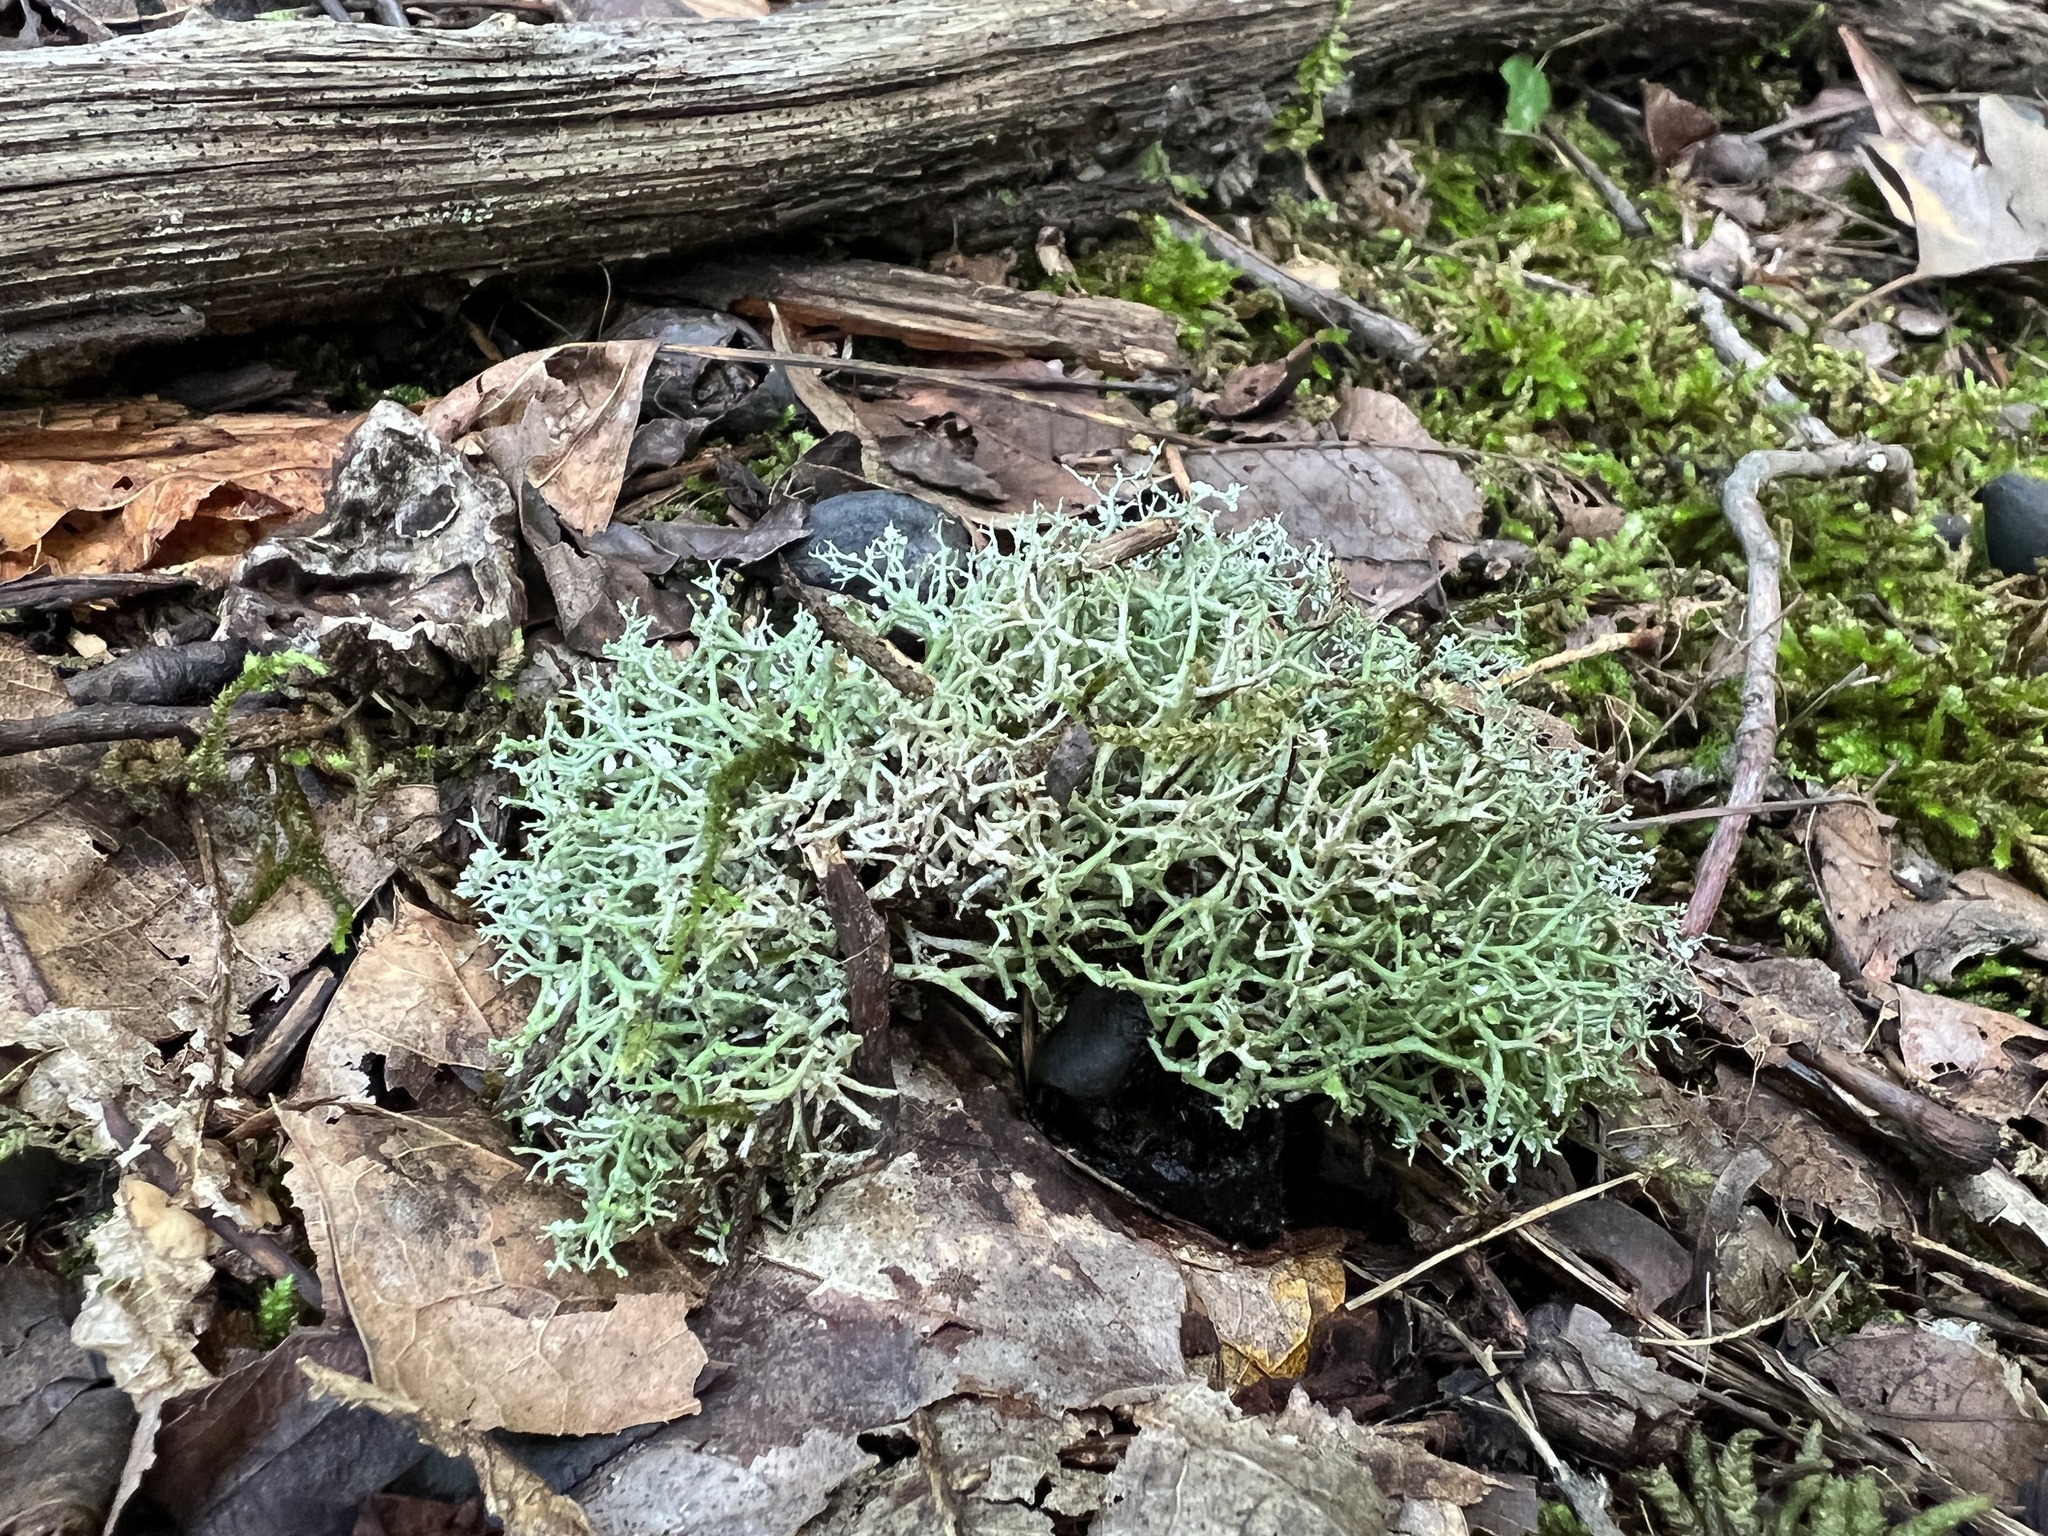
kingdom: Fungi
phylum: Ascomycota
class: Lecanoromycetes
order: Lecanorales
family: Cladoniaceae
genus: Cladonia
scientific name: Cladonia subtenuis
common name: Dixie reindeer lichen
